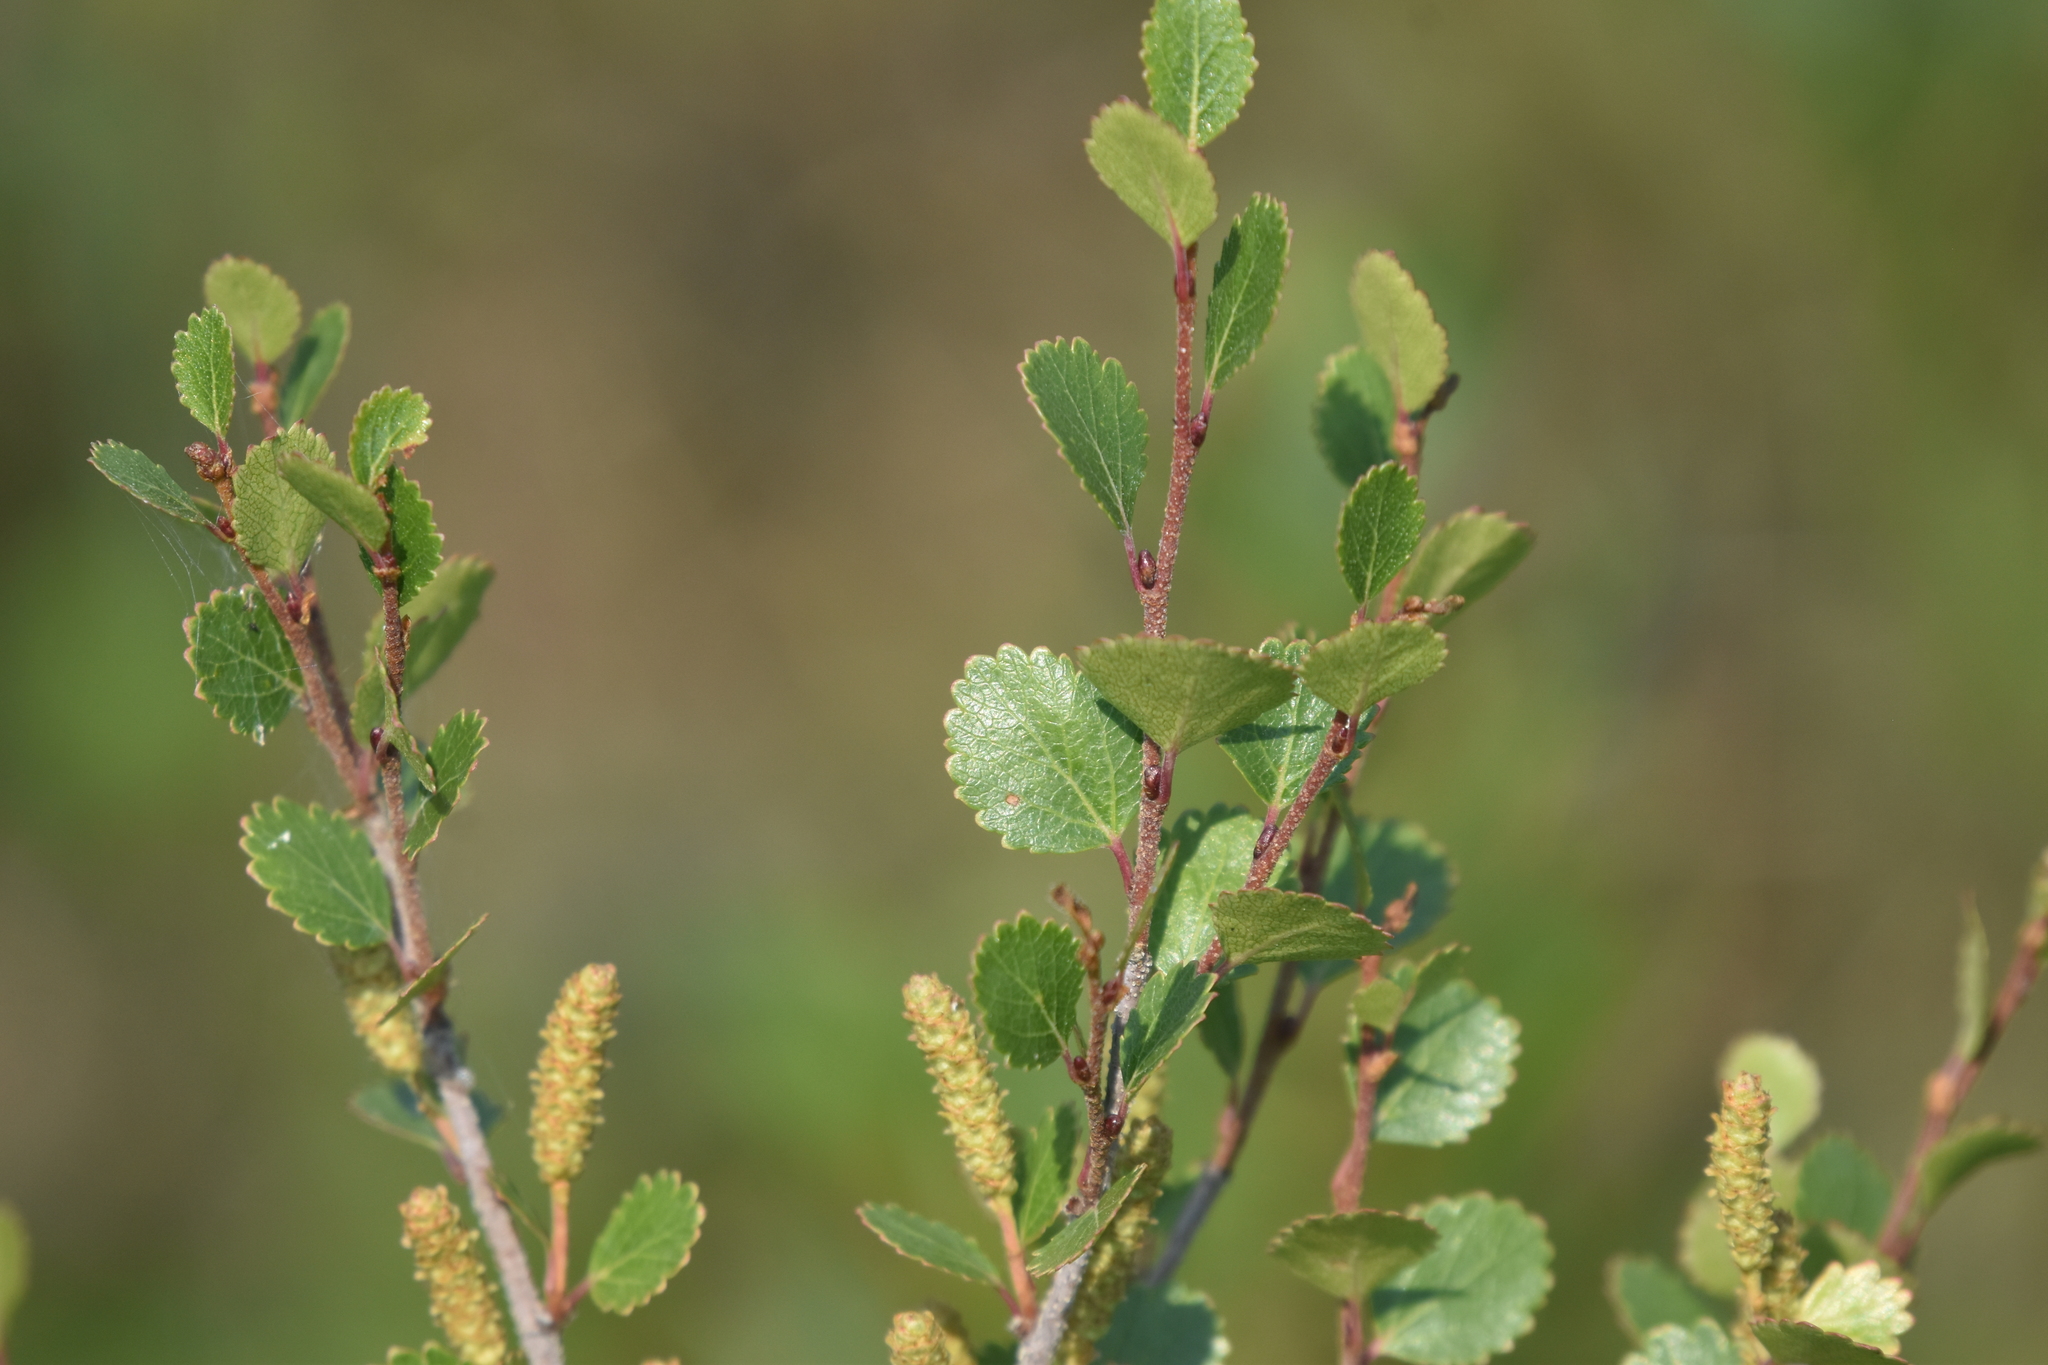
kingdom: Plantae
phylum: Tracheophyta
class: Magnoliopsida
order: Fagales
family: Betulaceae
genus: Betula
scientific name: Betula glandulosa
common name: Dwarf birch
